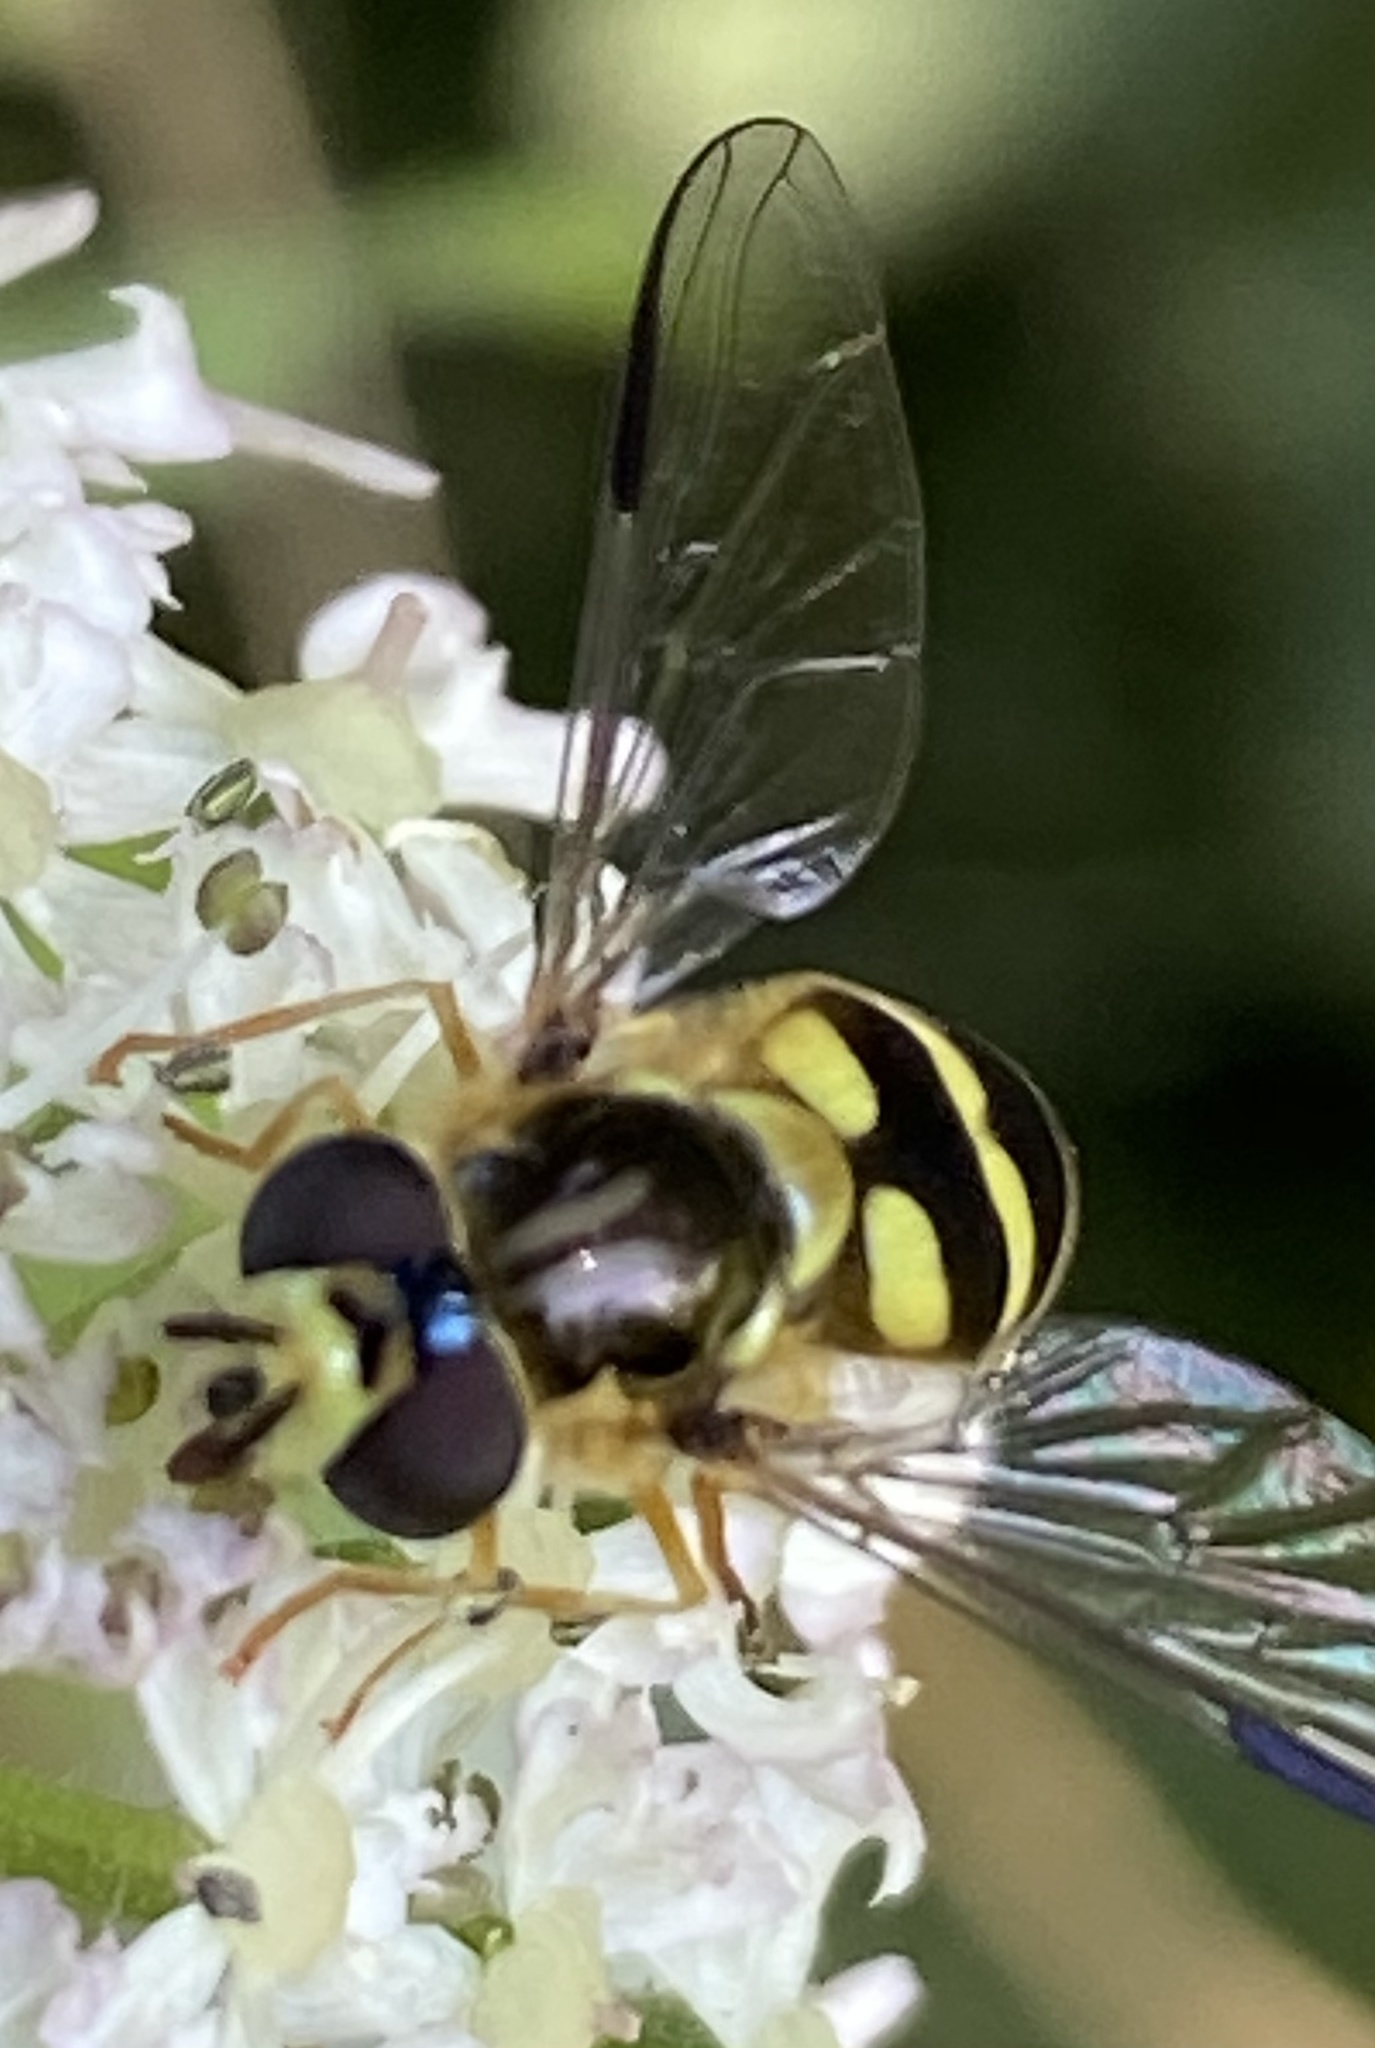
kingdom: Animalia
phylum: Arthropoda
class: Insecta
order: Diptera
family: Syrphidae
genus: Dasysyrphus
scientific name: Dasysyrphus albostriatus
